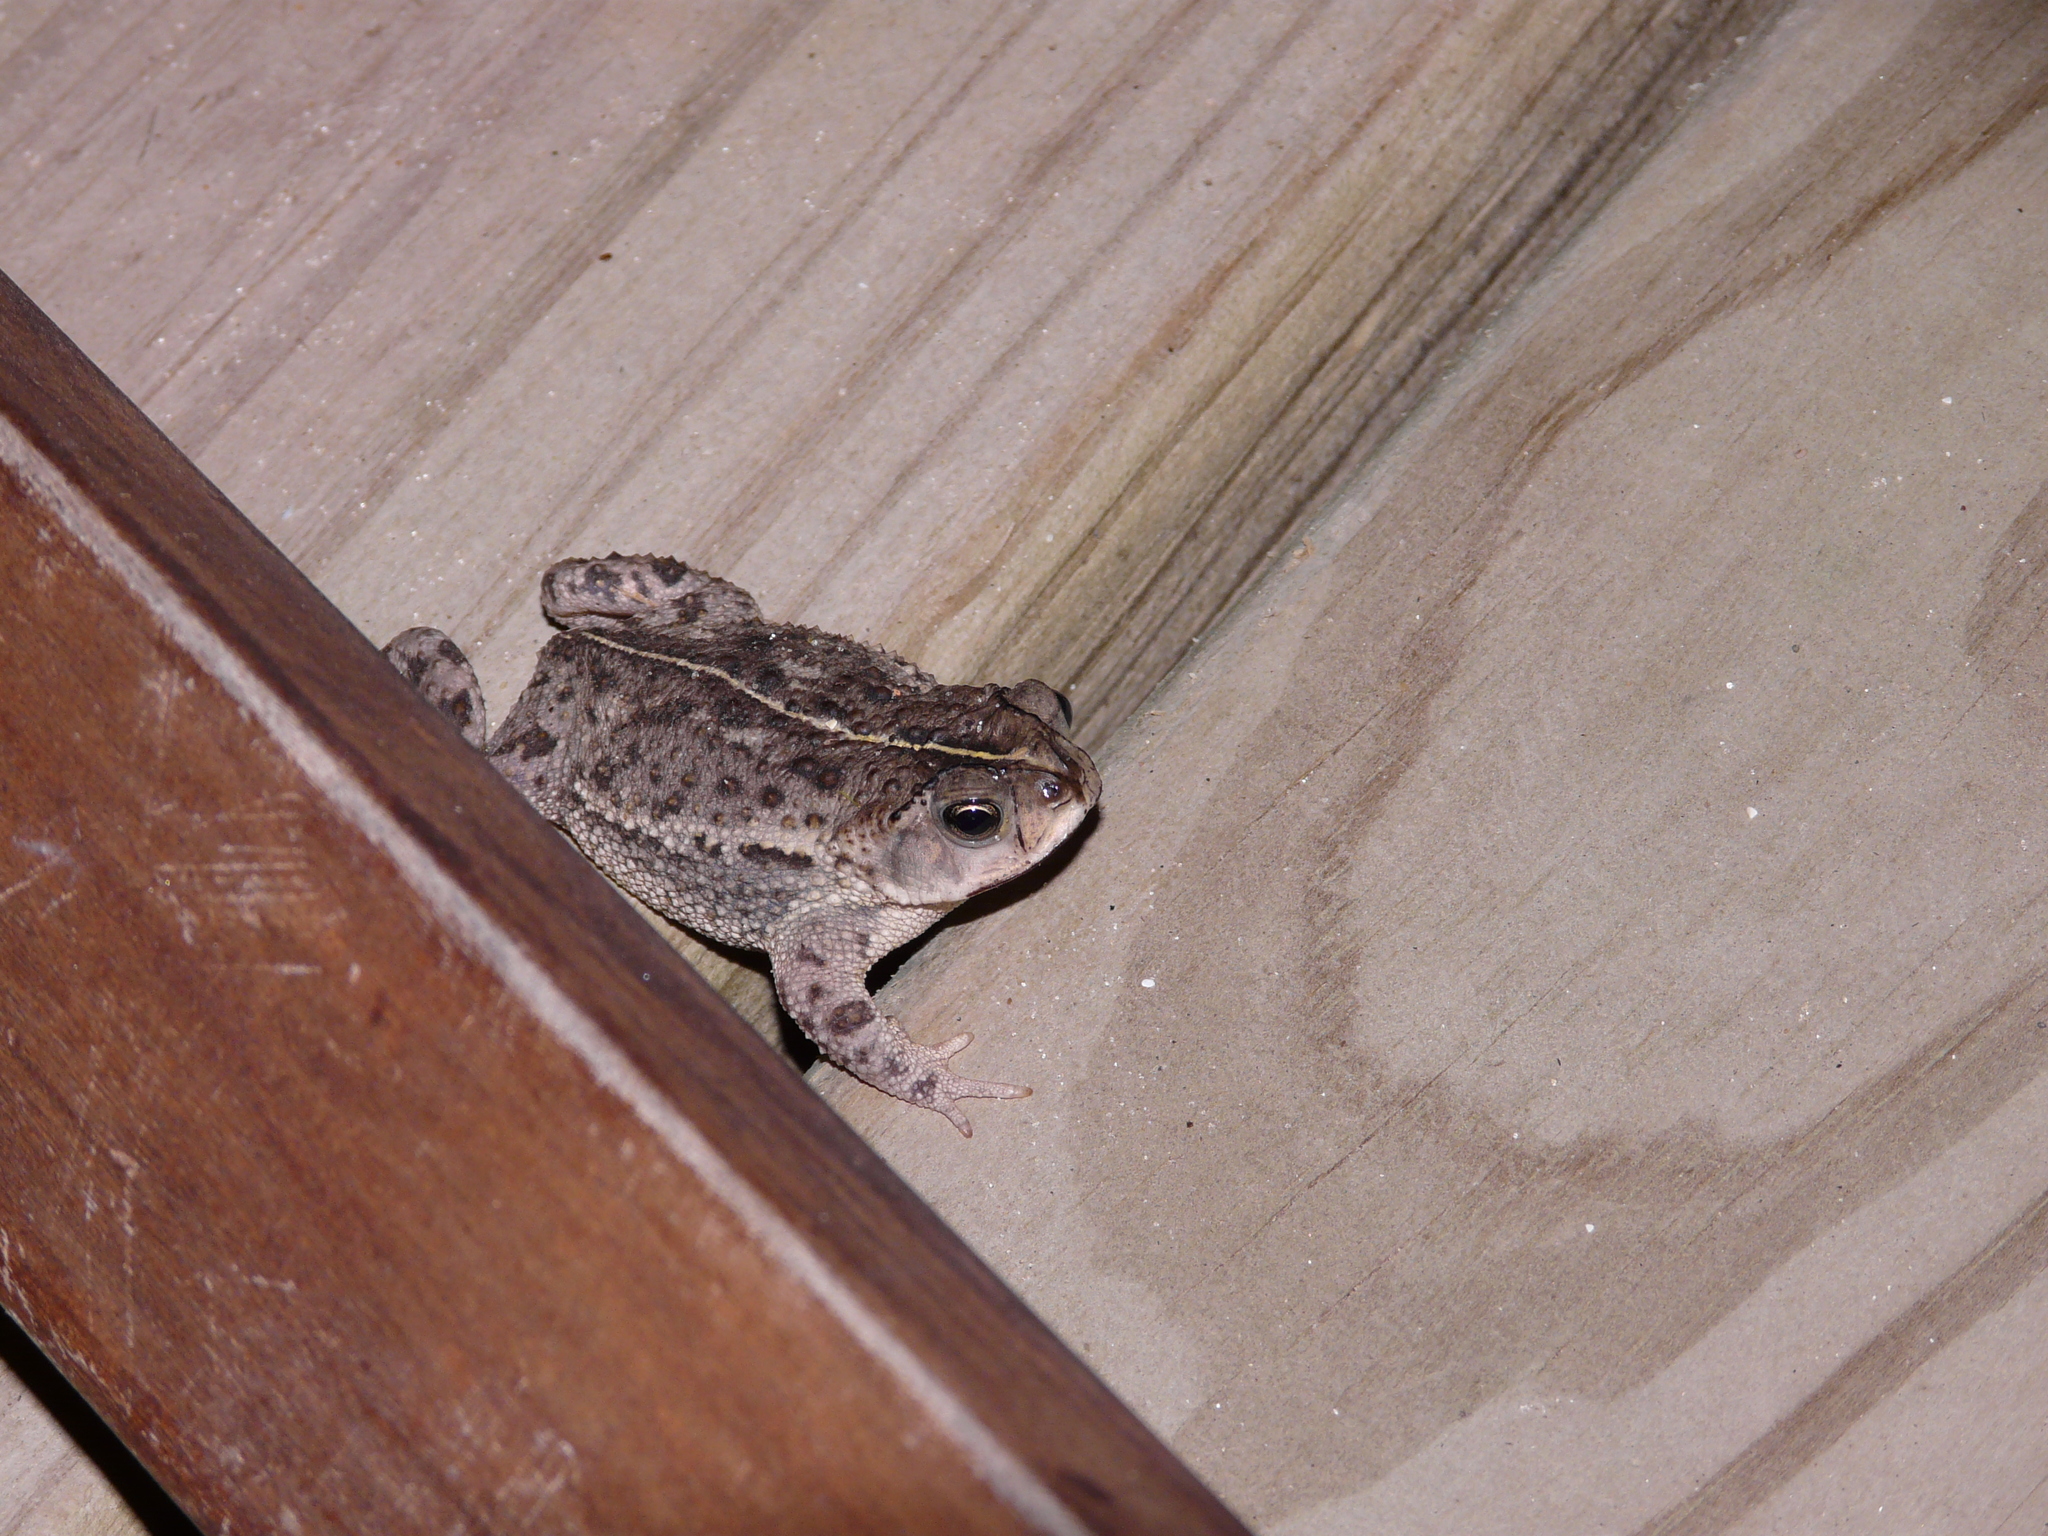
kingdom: Animalia
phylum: Chordata
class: Amphibia
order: Anura
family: Bufonidae
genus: Rhinella
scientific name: Rhinella dorbignyi
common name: D´orbigny’s toad
